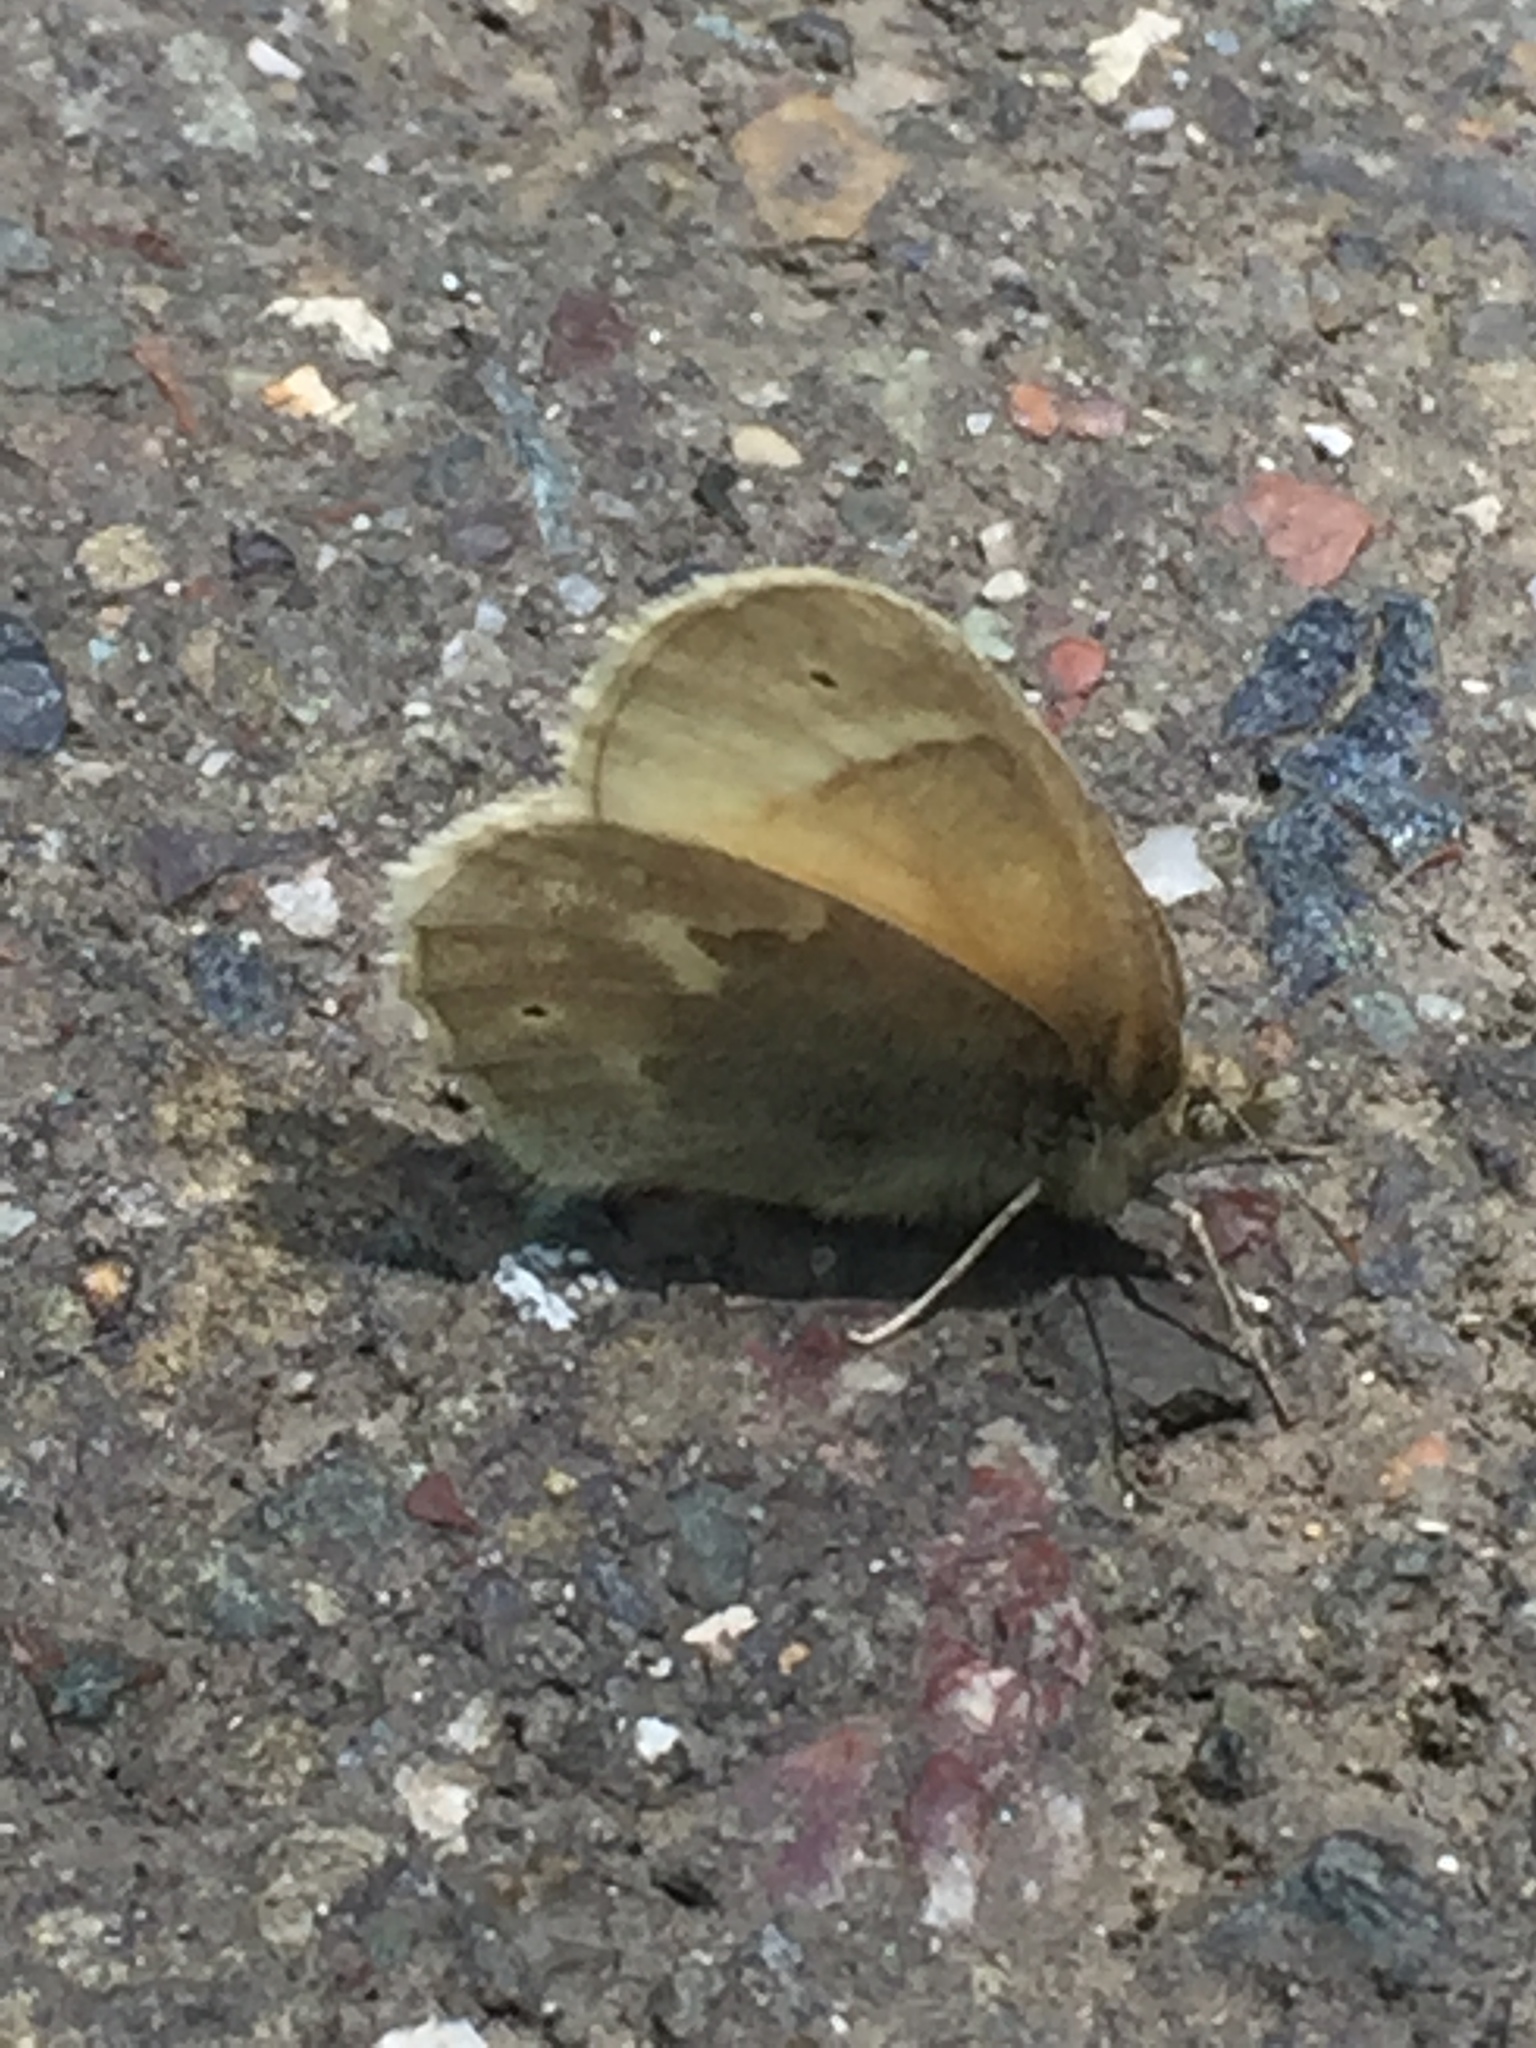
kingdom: Animalia
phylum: Arthropoda
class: Insecta
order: Lepidoptera
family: Nymphalidae
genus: Coenonympha
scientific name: Coenonympha california
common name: Common ringlet
